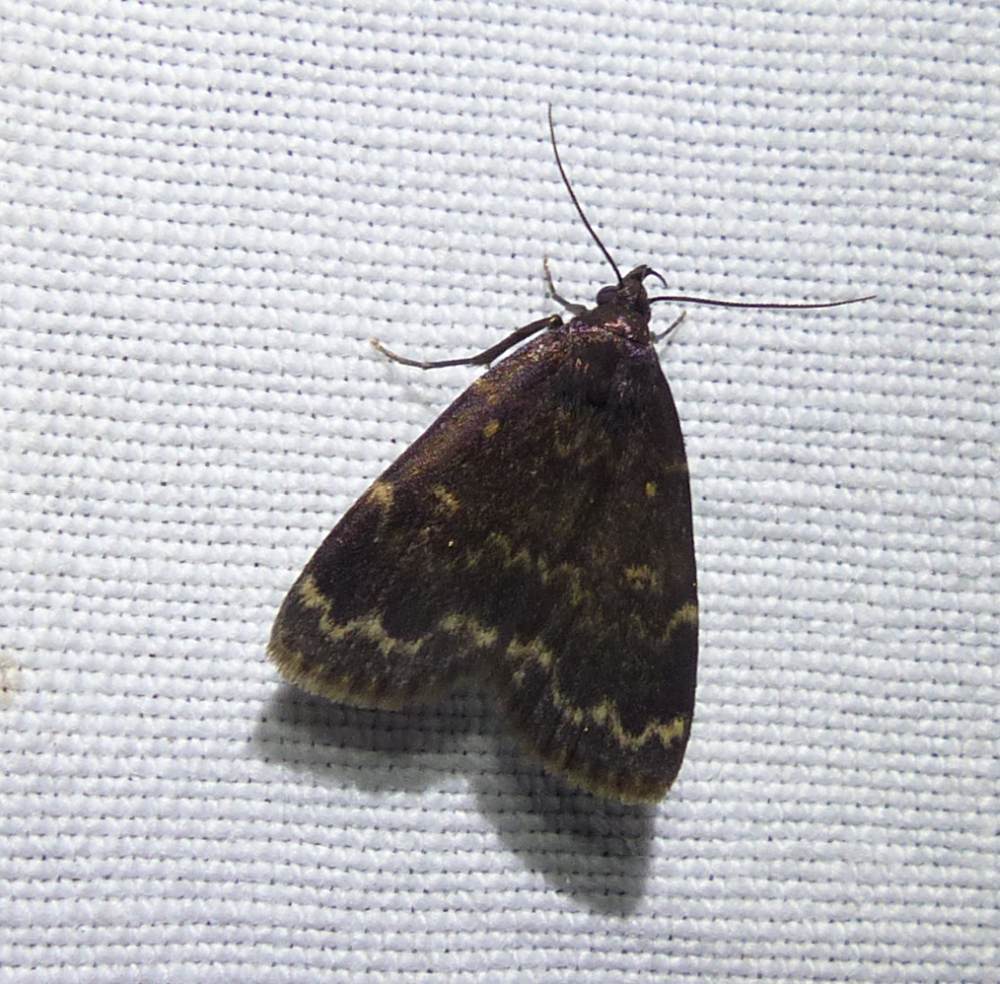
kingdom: Animalia
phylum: Arthropoda
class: Insecta
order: Lepidoptera
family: Erebidae
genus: Idia
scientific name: Idia lubricalis
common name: Twin-striped tabby
